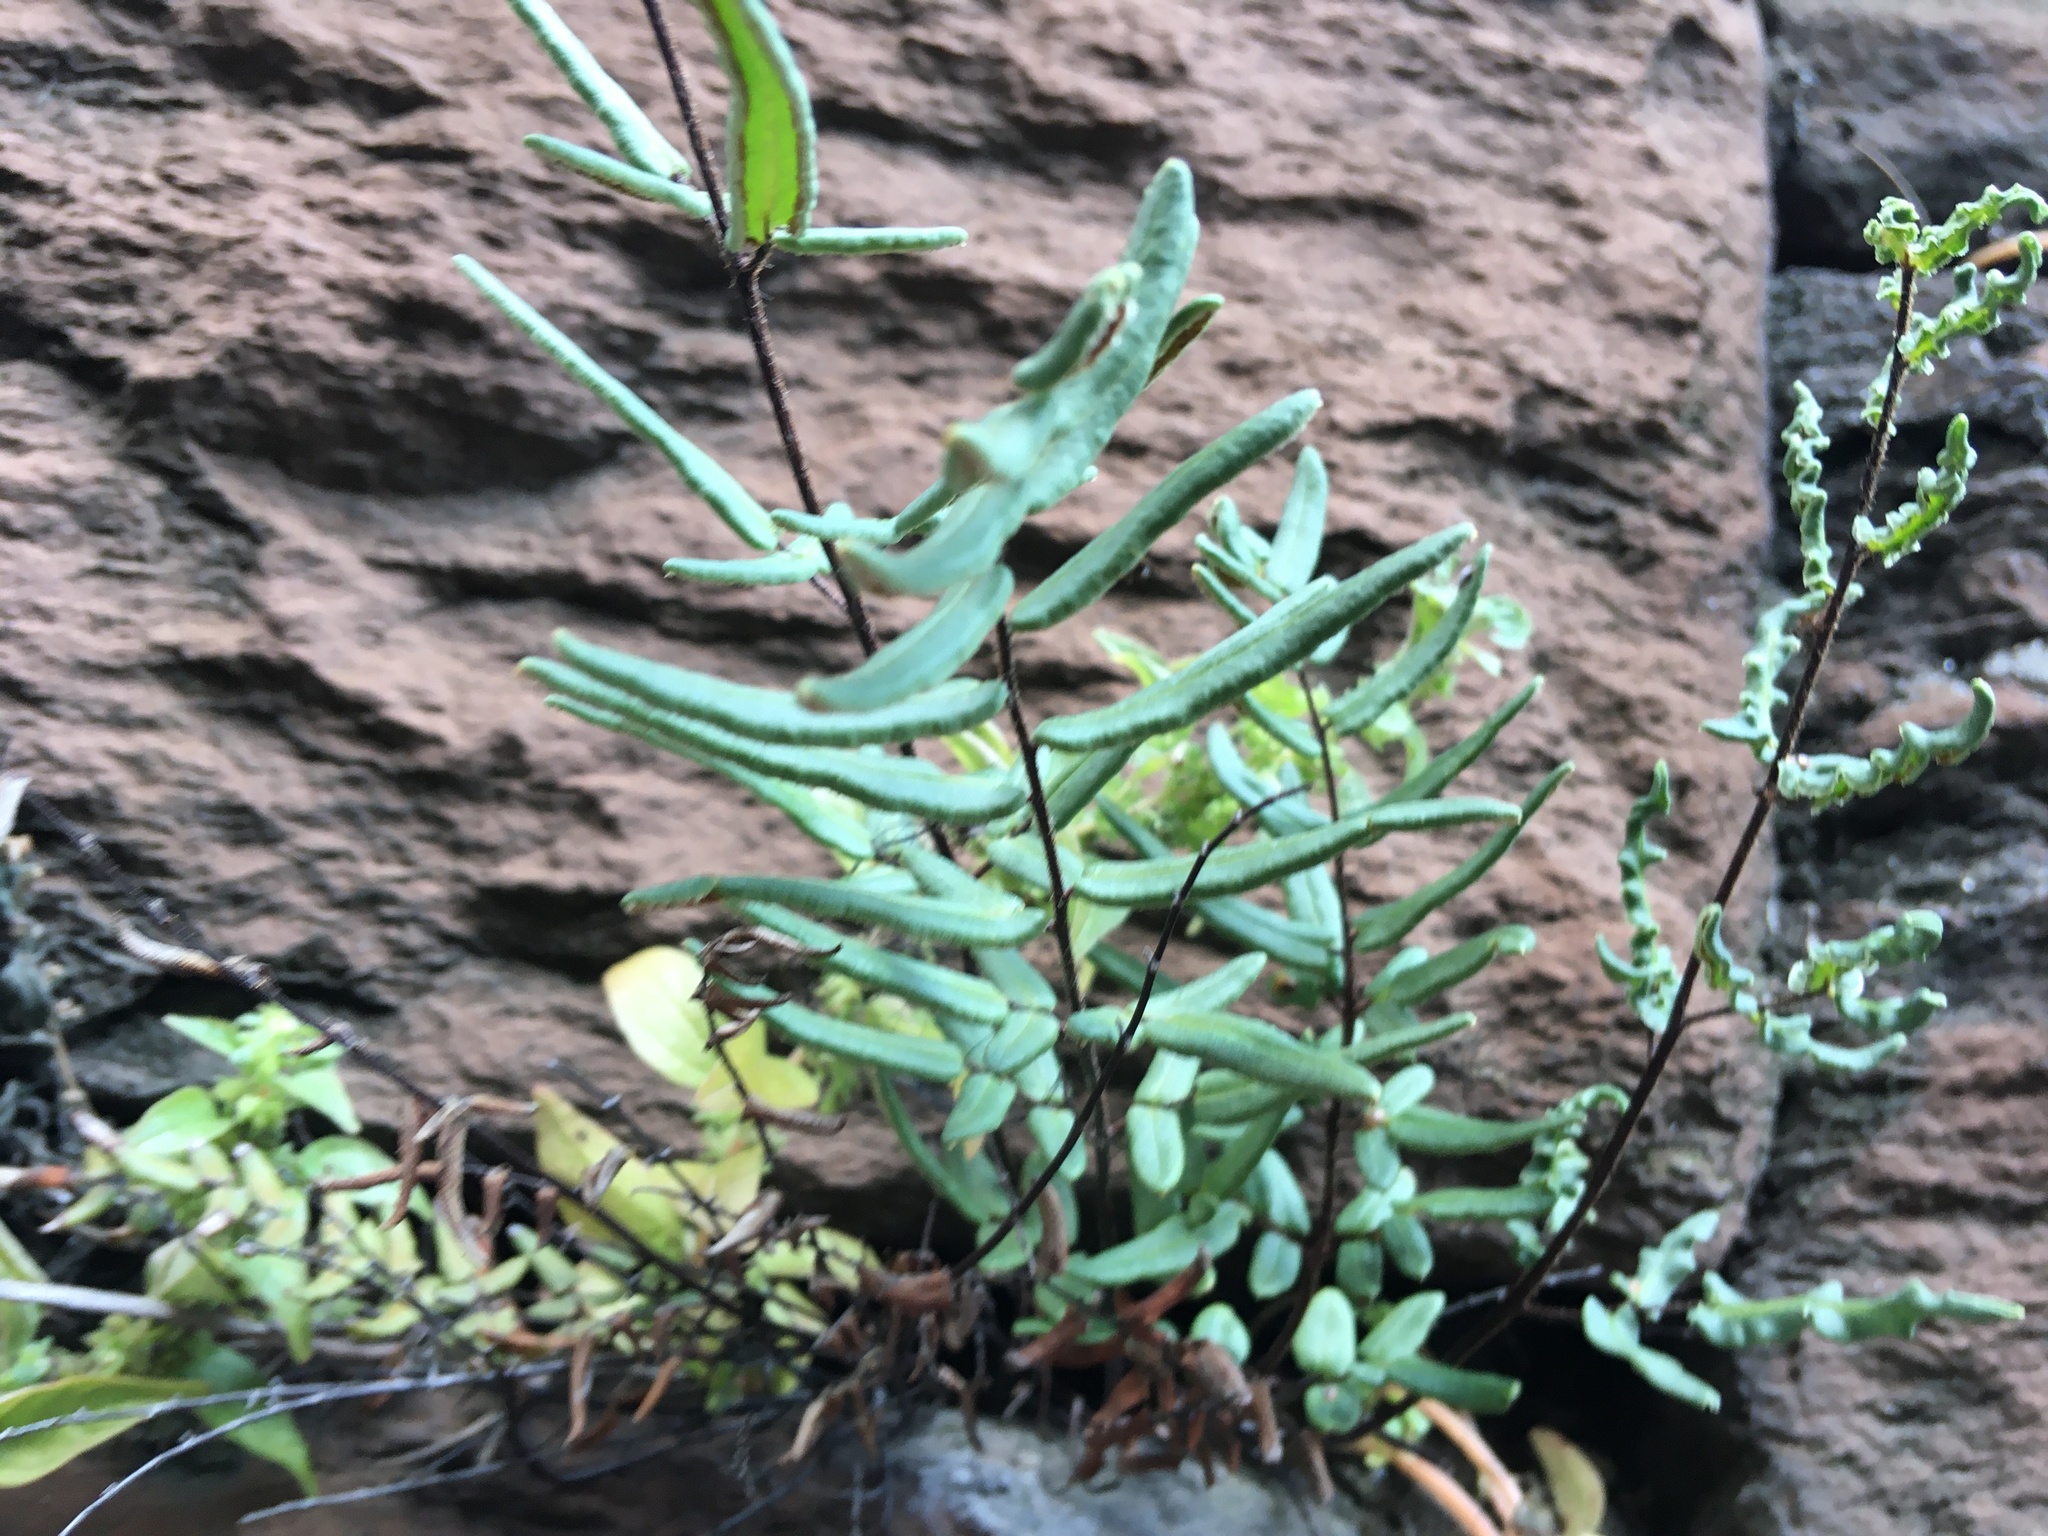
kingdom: Plantae
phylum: Tracheophyta
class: Polypodiopsida
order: Polypodiales
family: Pteridaceae
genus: Pellaea
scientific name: Pellaea atropurpurea
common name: Hairy cliffbrake
